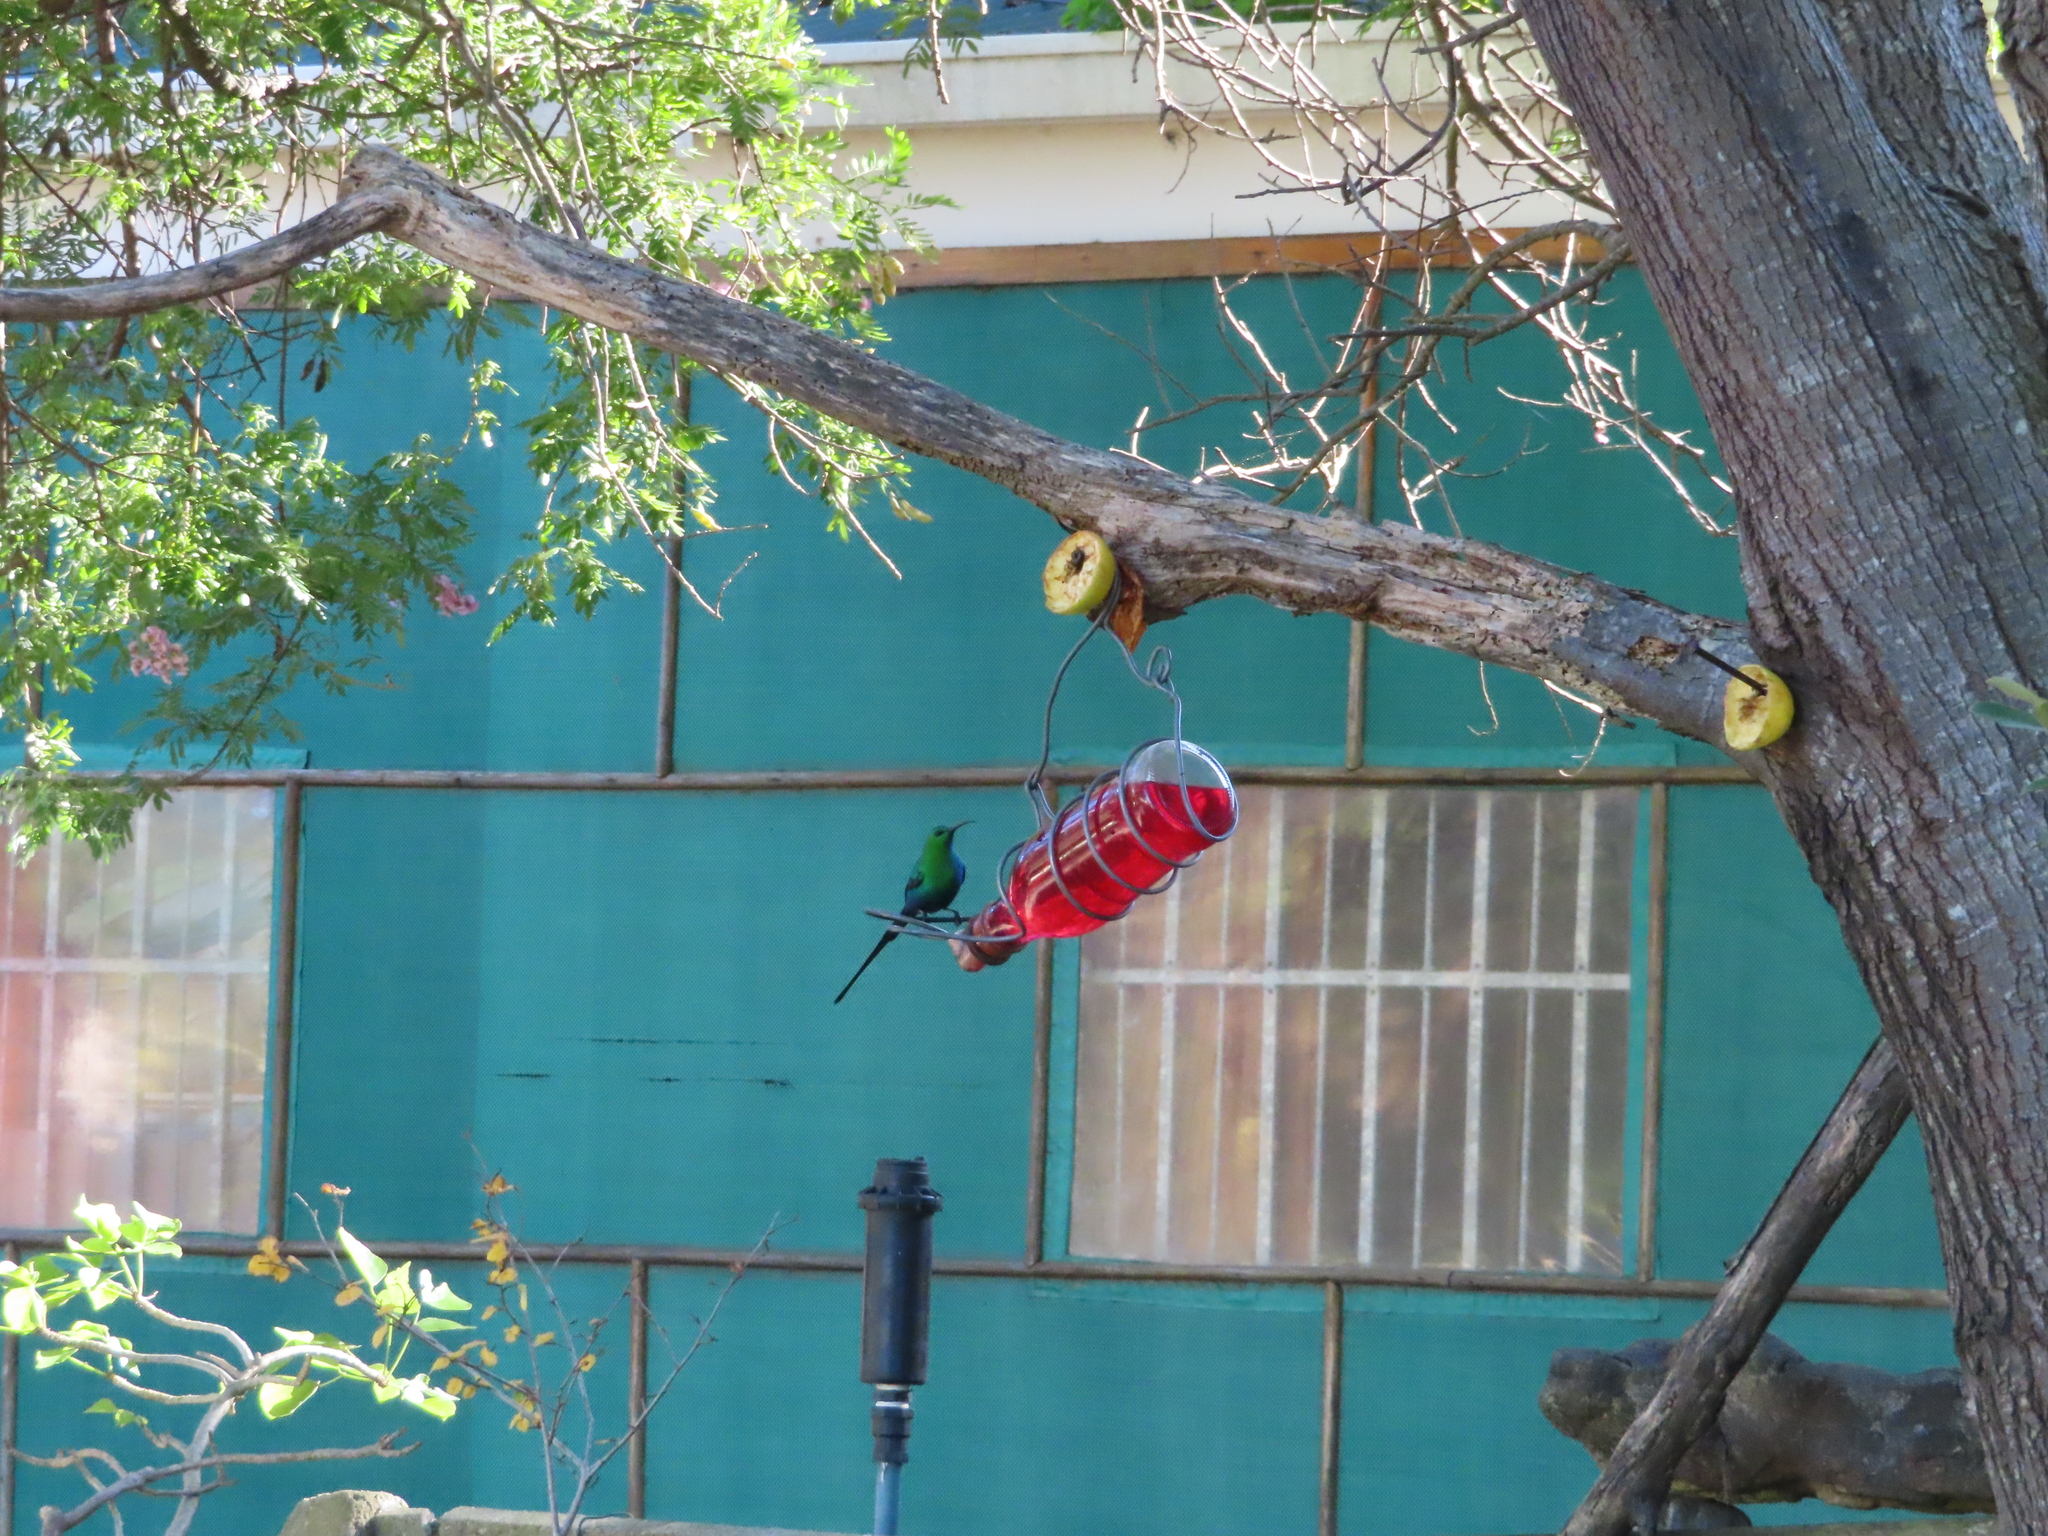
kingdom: Animalia
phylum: Chordata
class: Aves
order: Passeriformes
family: Nectariniidae
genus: Nectarinia
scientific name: Nectarinia famosa
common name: Malachite sunbird
